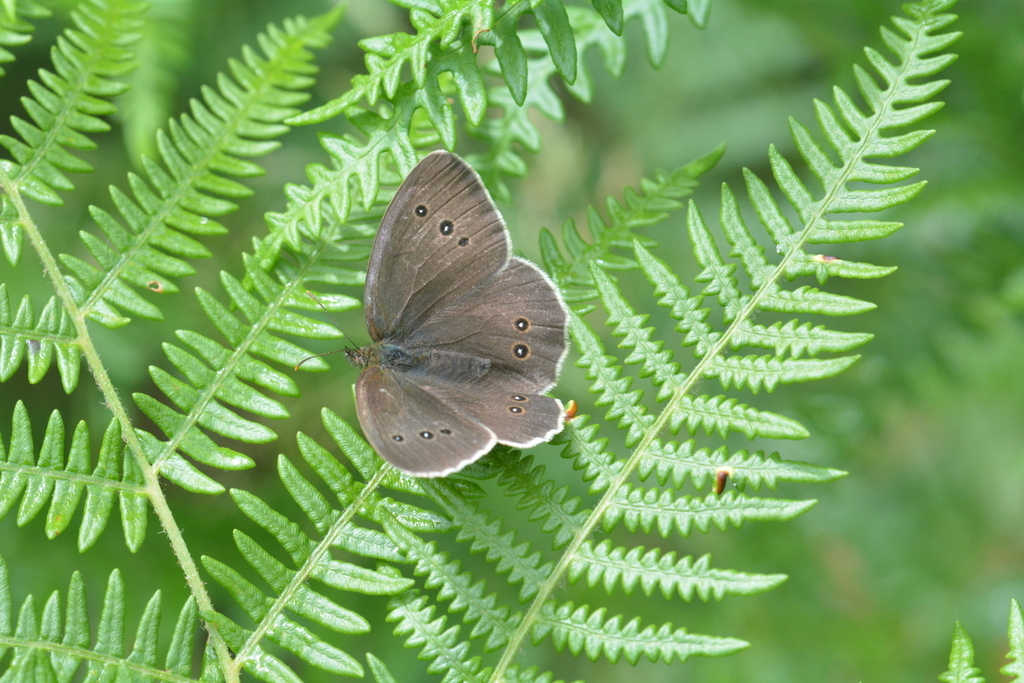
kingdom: Animalia
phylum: Arthropoda
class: Insecta
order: Lepidoptera
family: Nymphalidae
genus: Aphantopus
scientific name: Aphantopus hyperantus
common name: Ringlet
